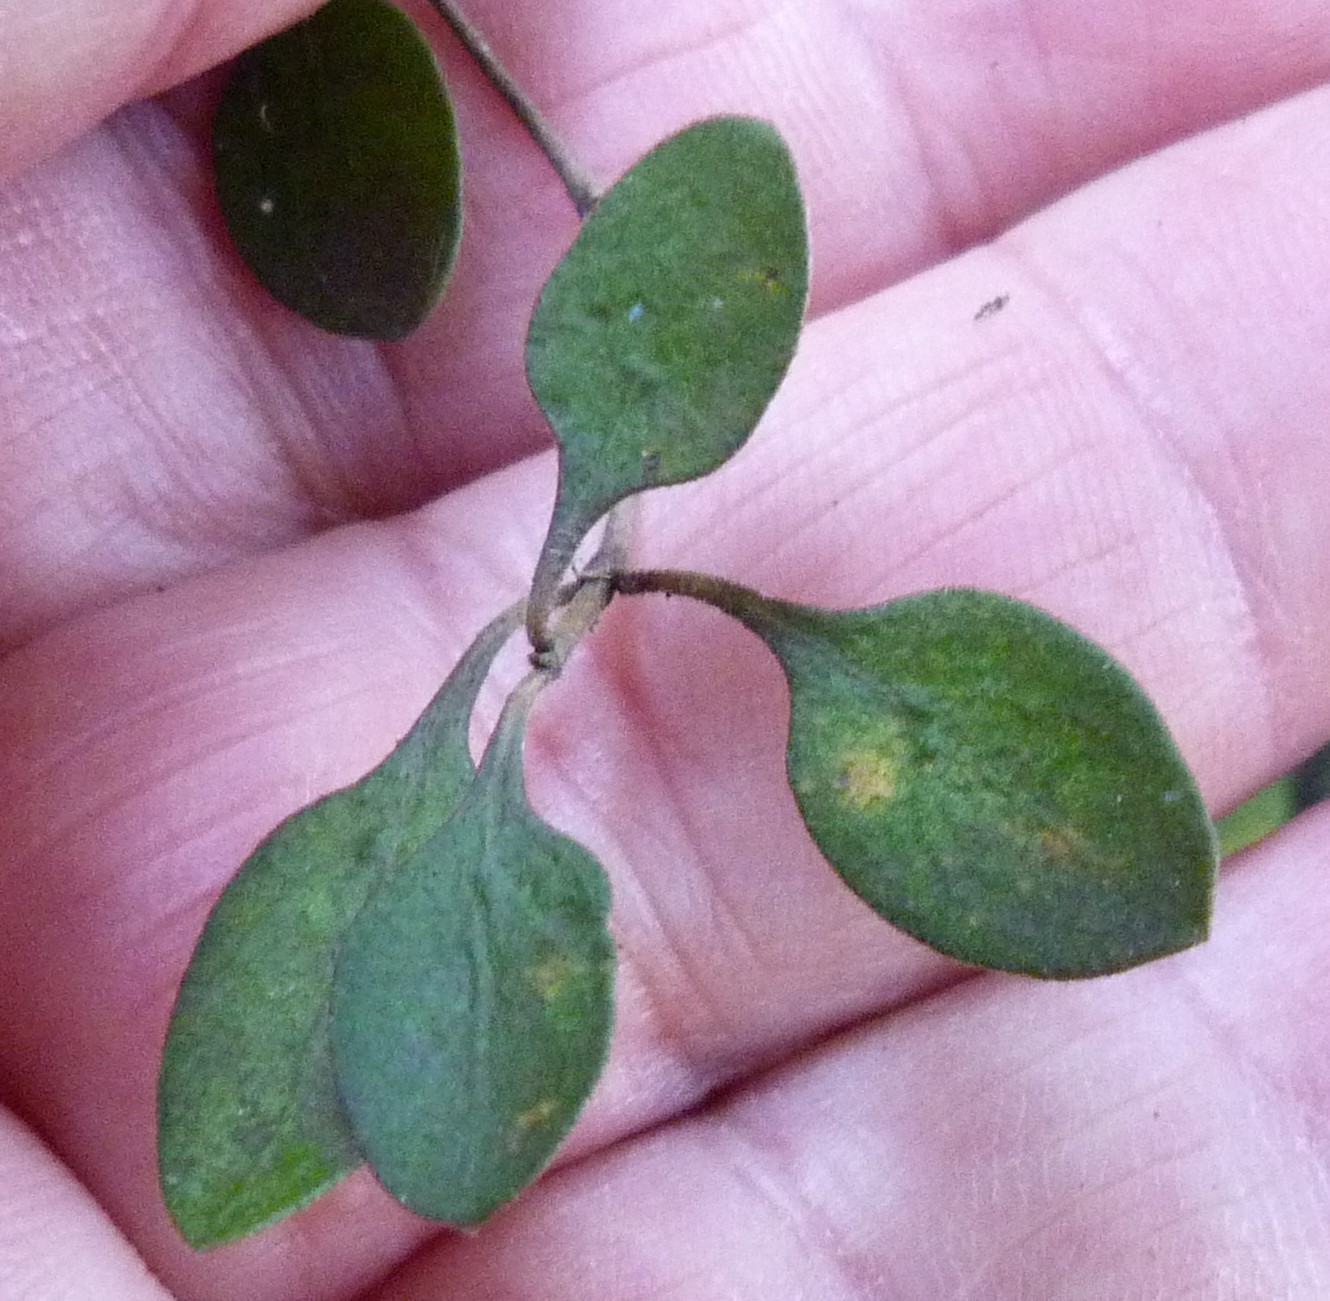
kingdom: Plantae
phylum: Tracheophyta
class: Magnoliopsida
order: Gentianales
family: Rubiaceae
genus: Coprosma
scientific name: Coprosma rubra
